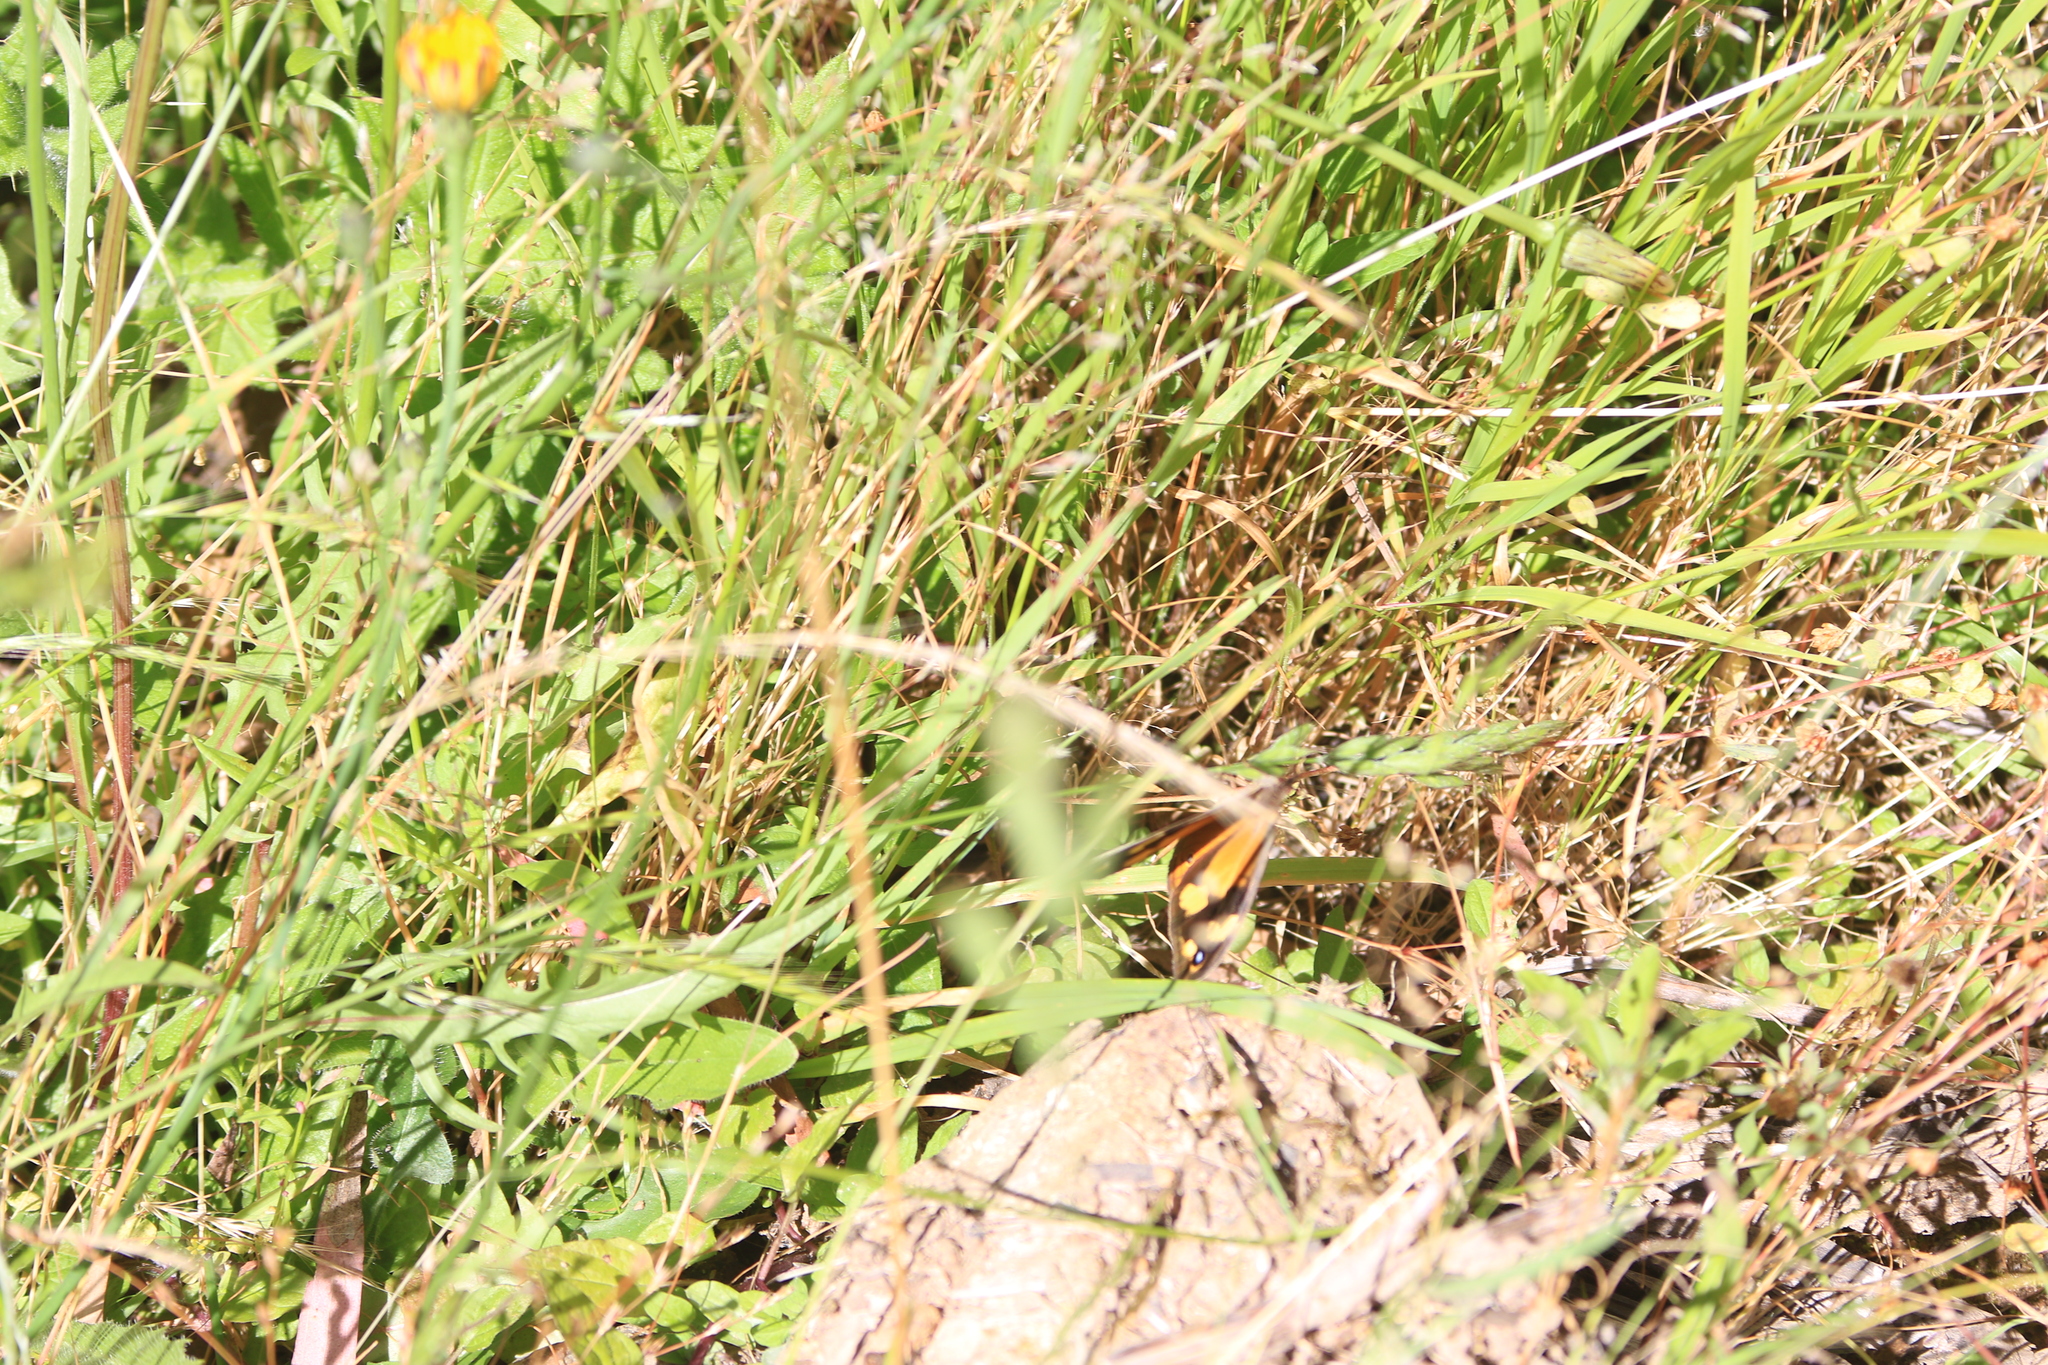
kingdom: Animalia
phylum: Arthropoda
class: Insecta
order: Lepidoptera
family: Nymphalidae
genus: Heteronympha
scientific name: Heteronympha merope
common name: Common brown
